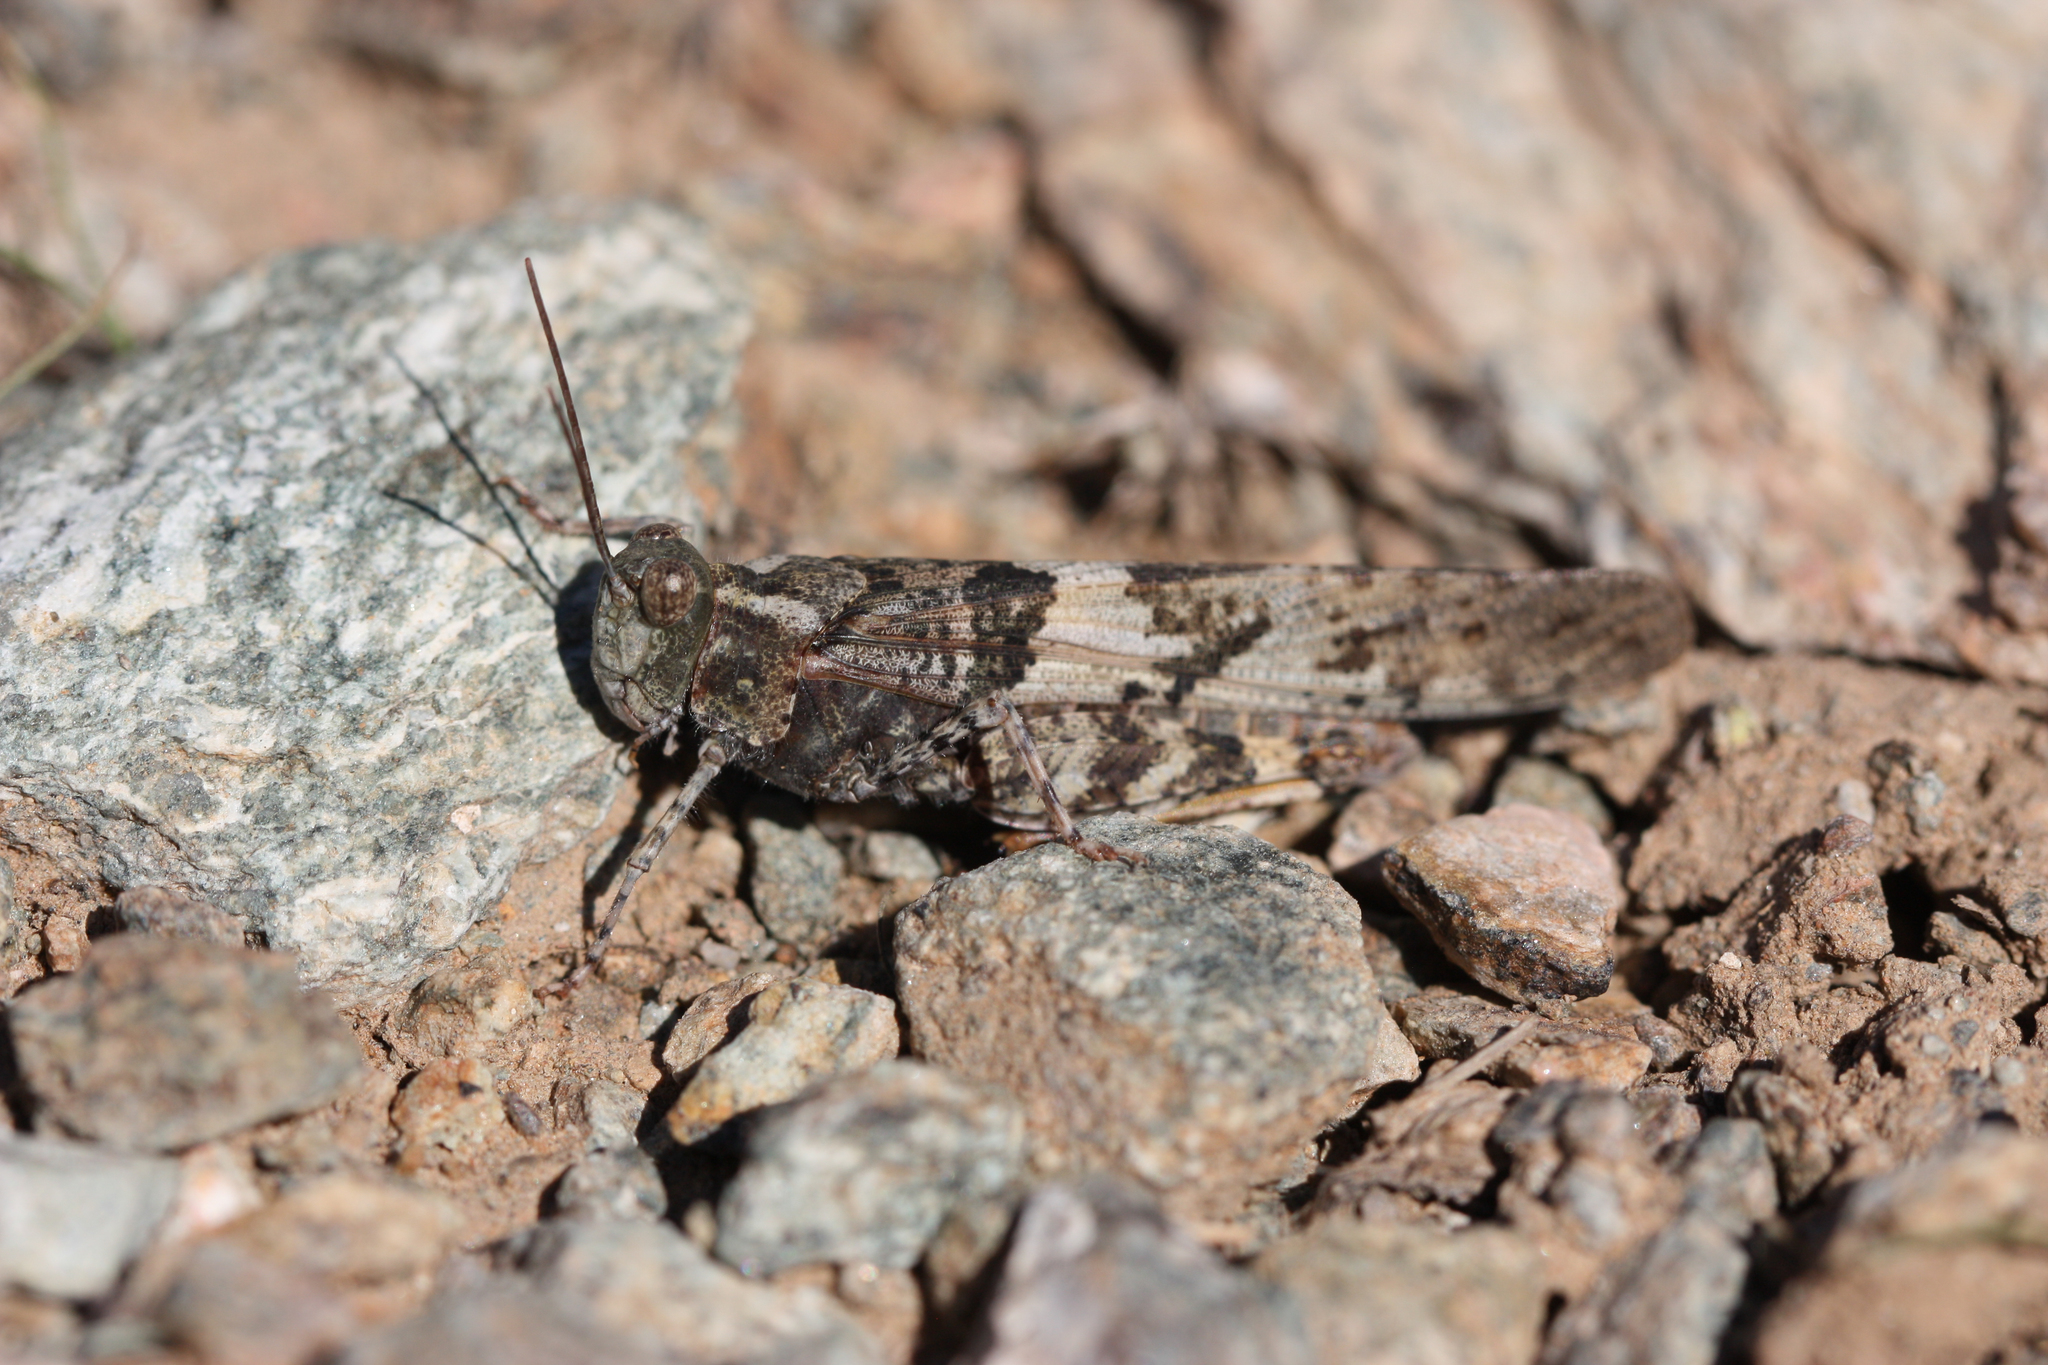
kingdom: Animalia
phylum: Arthropoda
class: Insecta
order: Orthoptera
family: Acrididae
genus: Trimerotropis
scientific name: Trimerotropis pallidipennis
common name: Pallid-winged grasshopper
